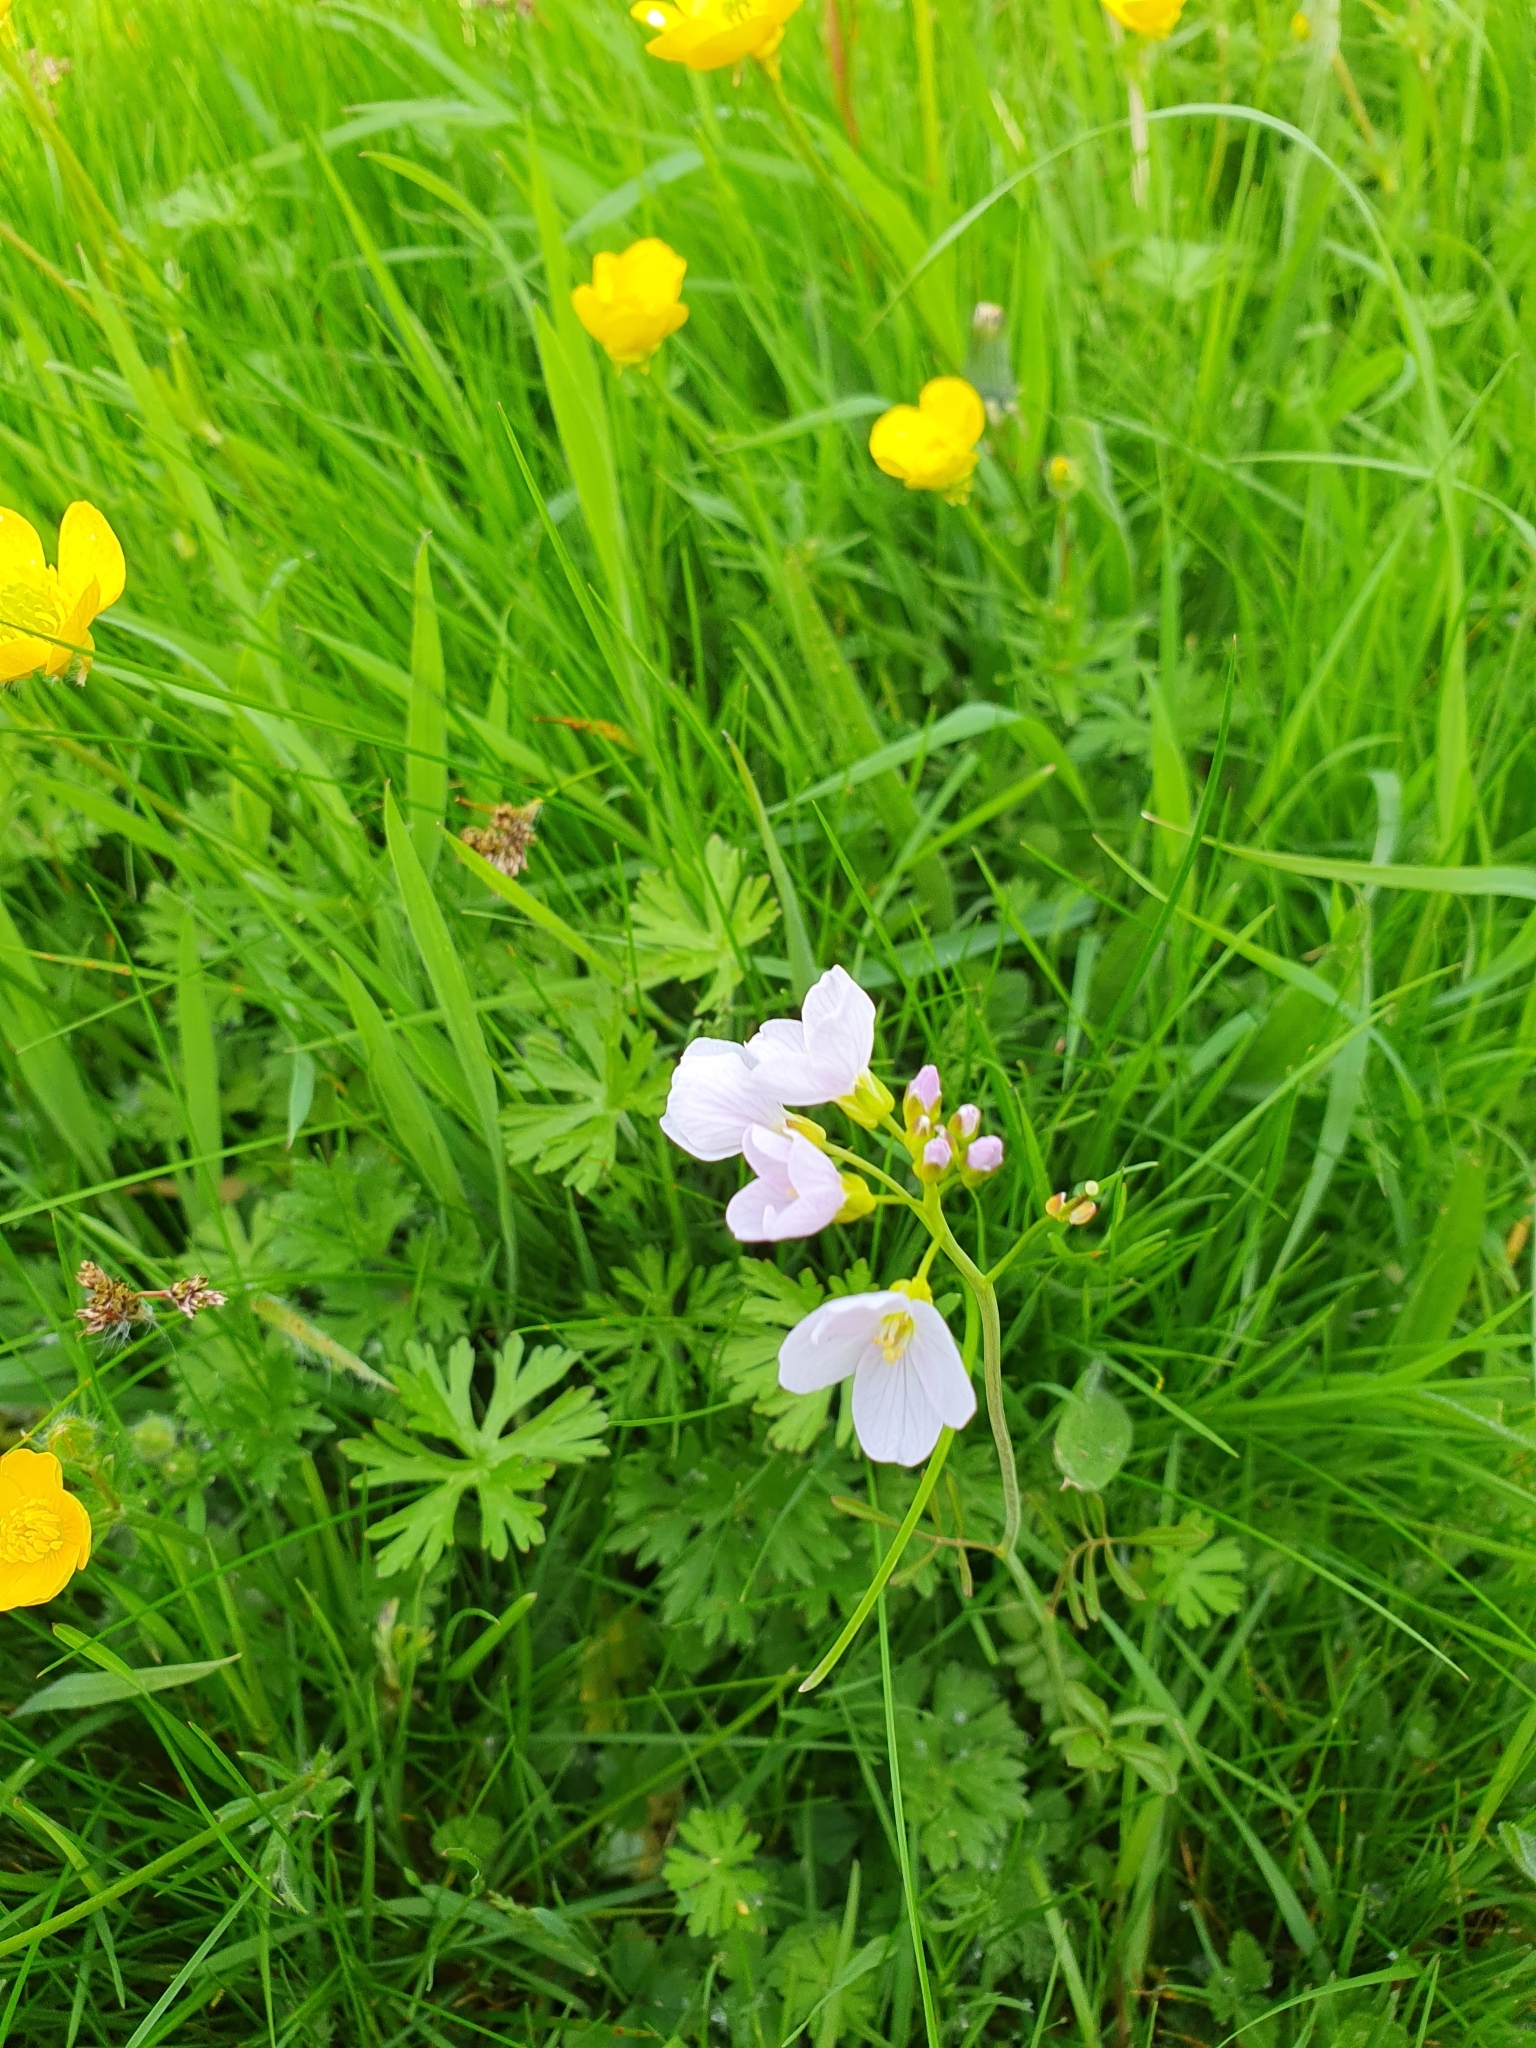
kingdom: Plantae
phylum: Tracheophyta
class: Magnoliopsida
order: Brassicales
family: Brassicaceae
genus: Cardamine
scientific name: Cardamine pratensis
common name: Cuckoo flower
